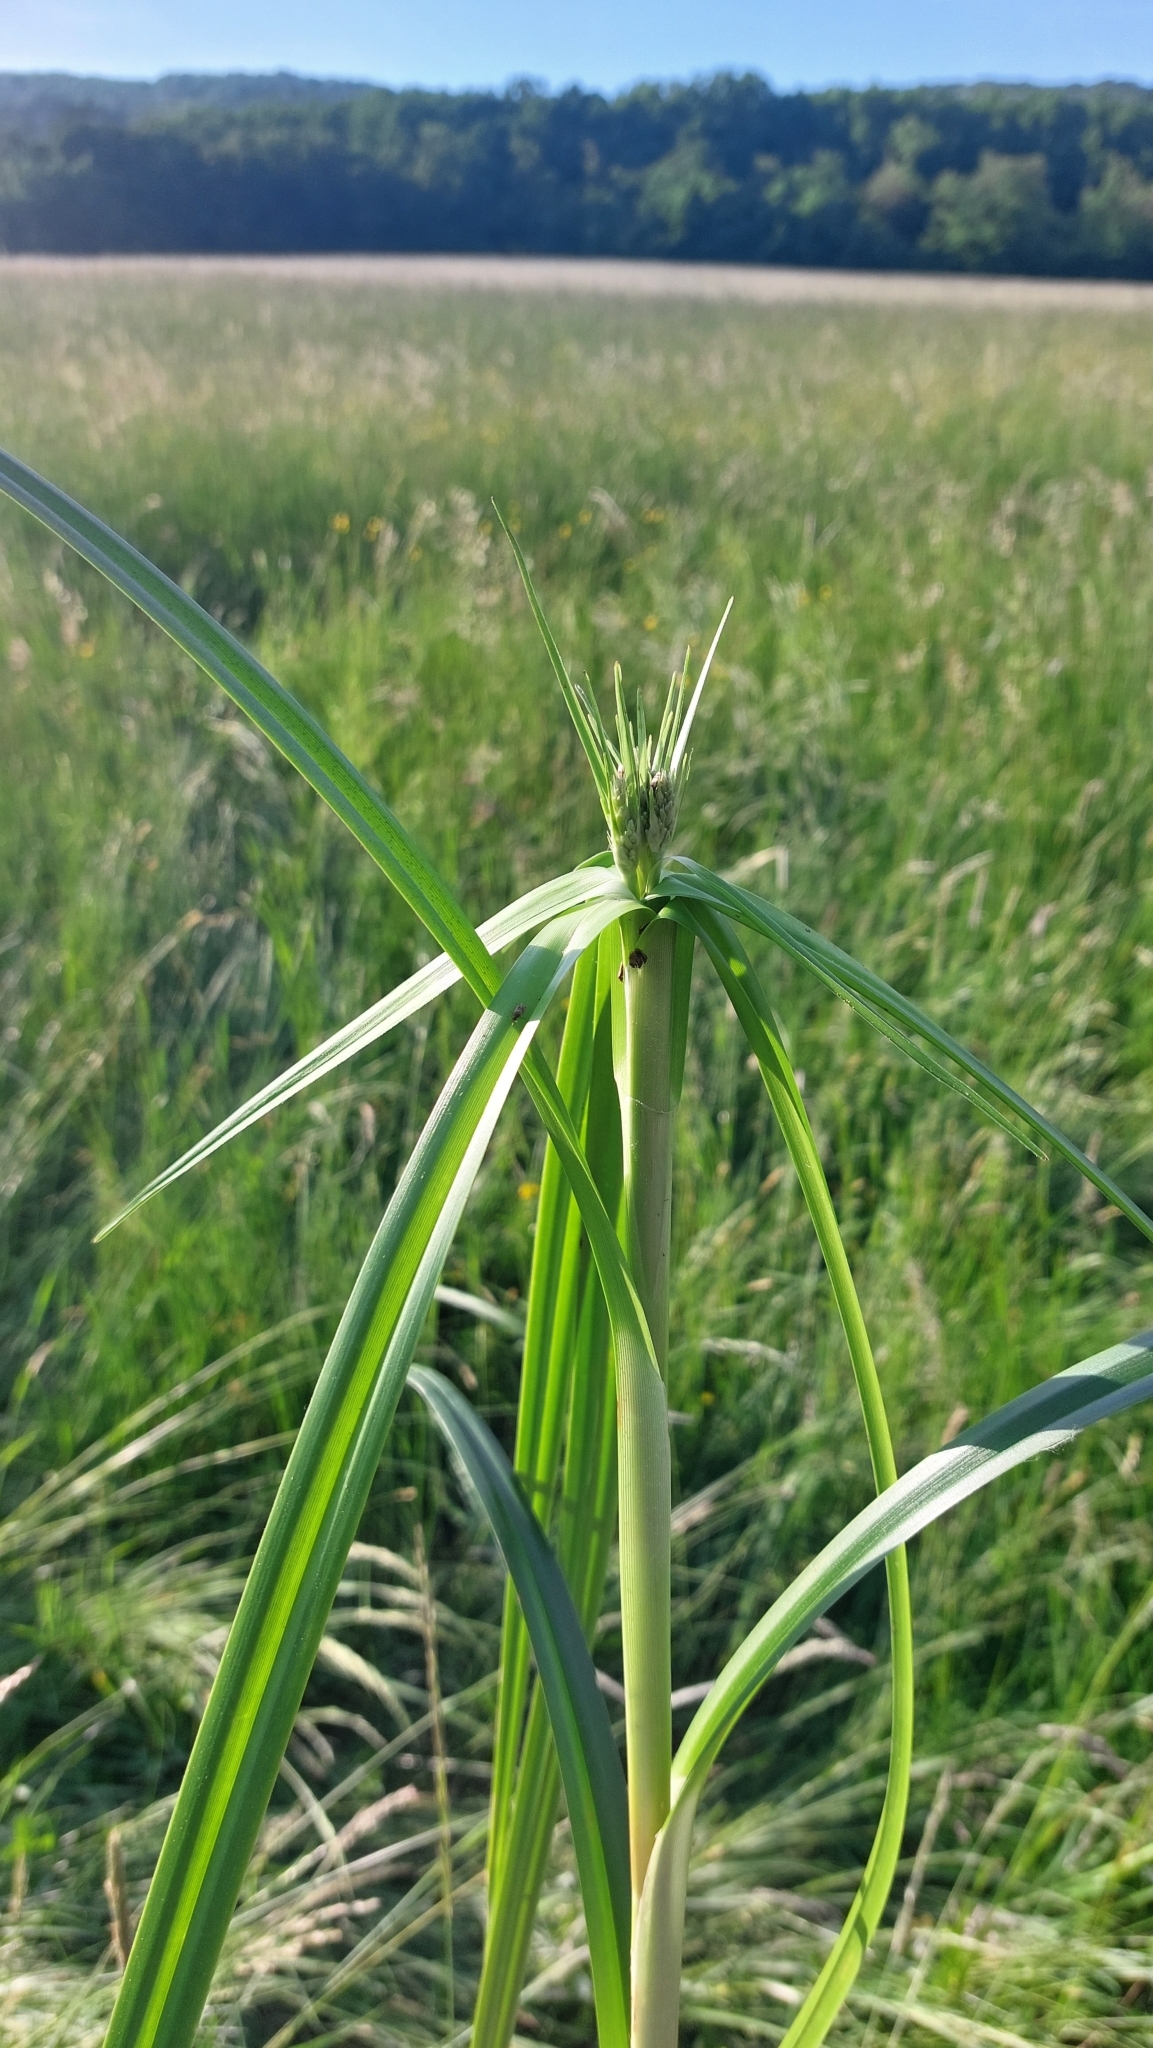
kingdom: Plantae
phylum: Tracheophyta
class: Liliopsida
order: Poales
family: Cyperaceae
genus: Scirpus
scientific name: Scirpus sylvaticus
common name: Wood club-rush
